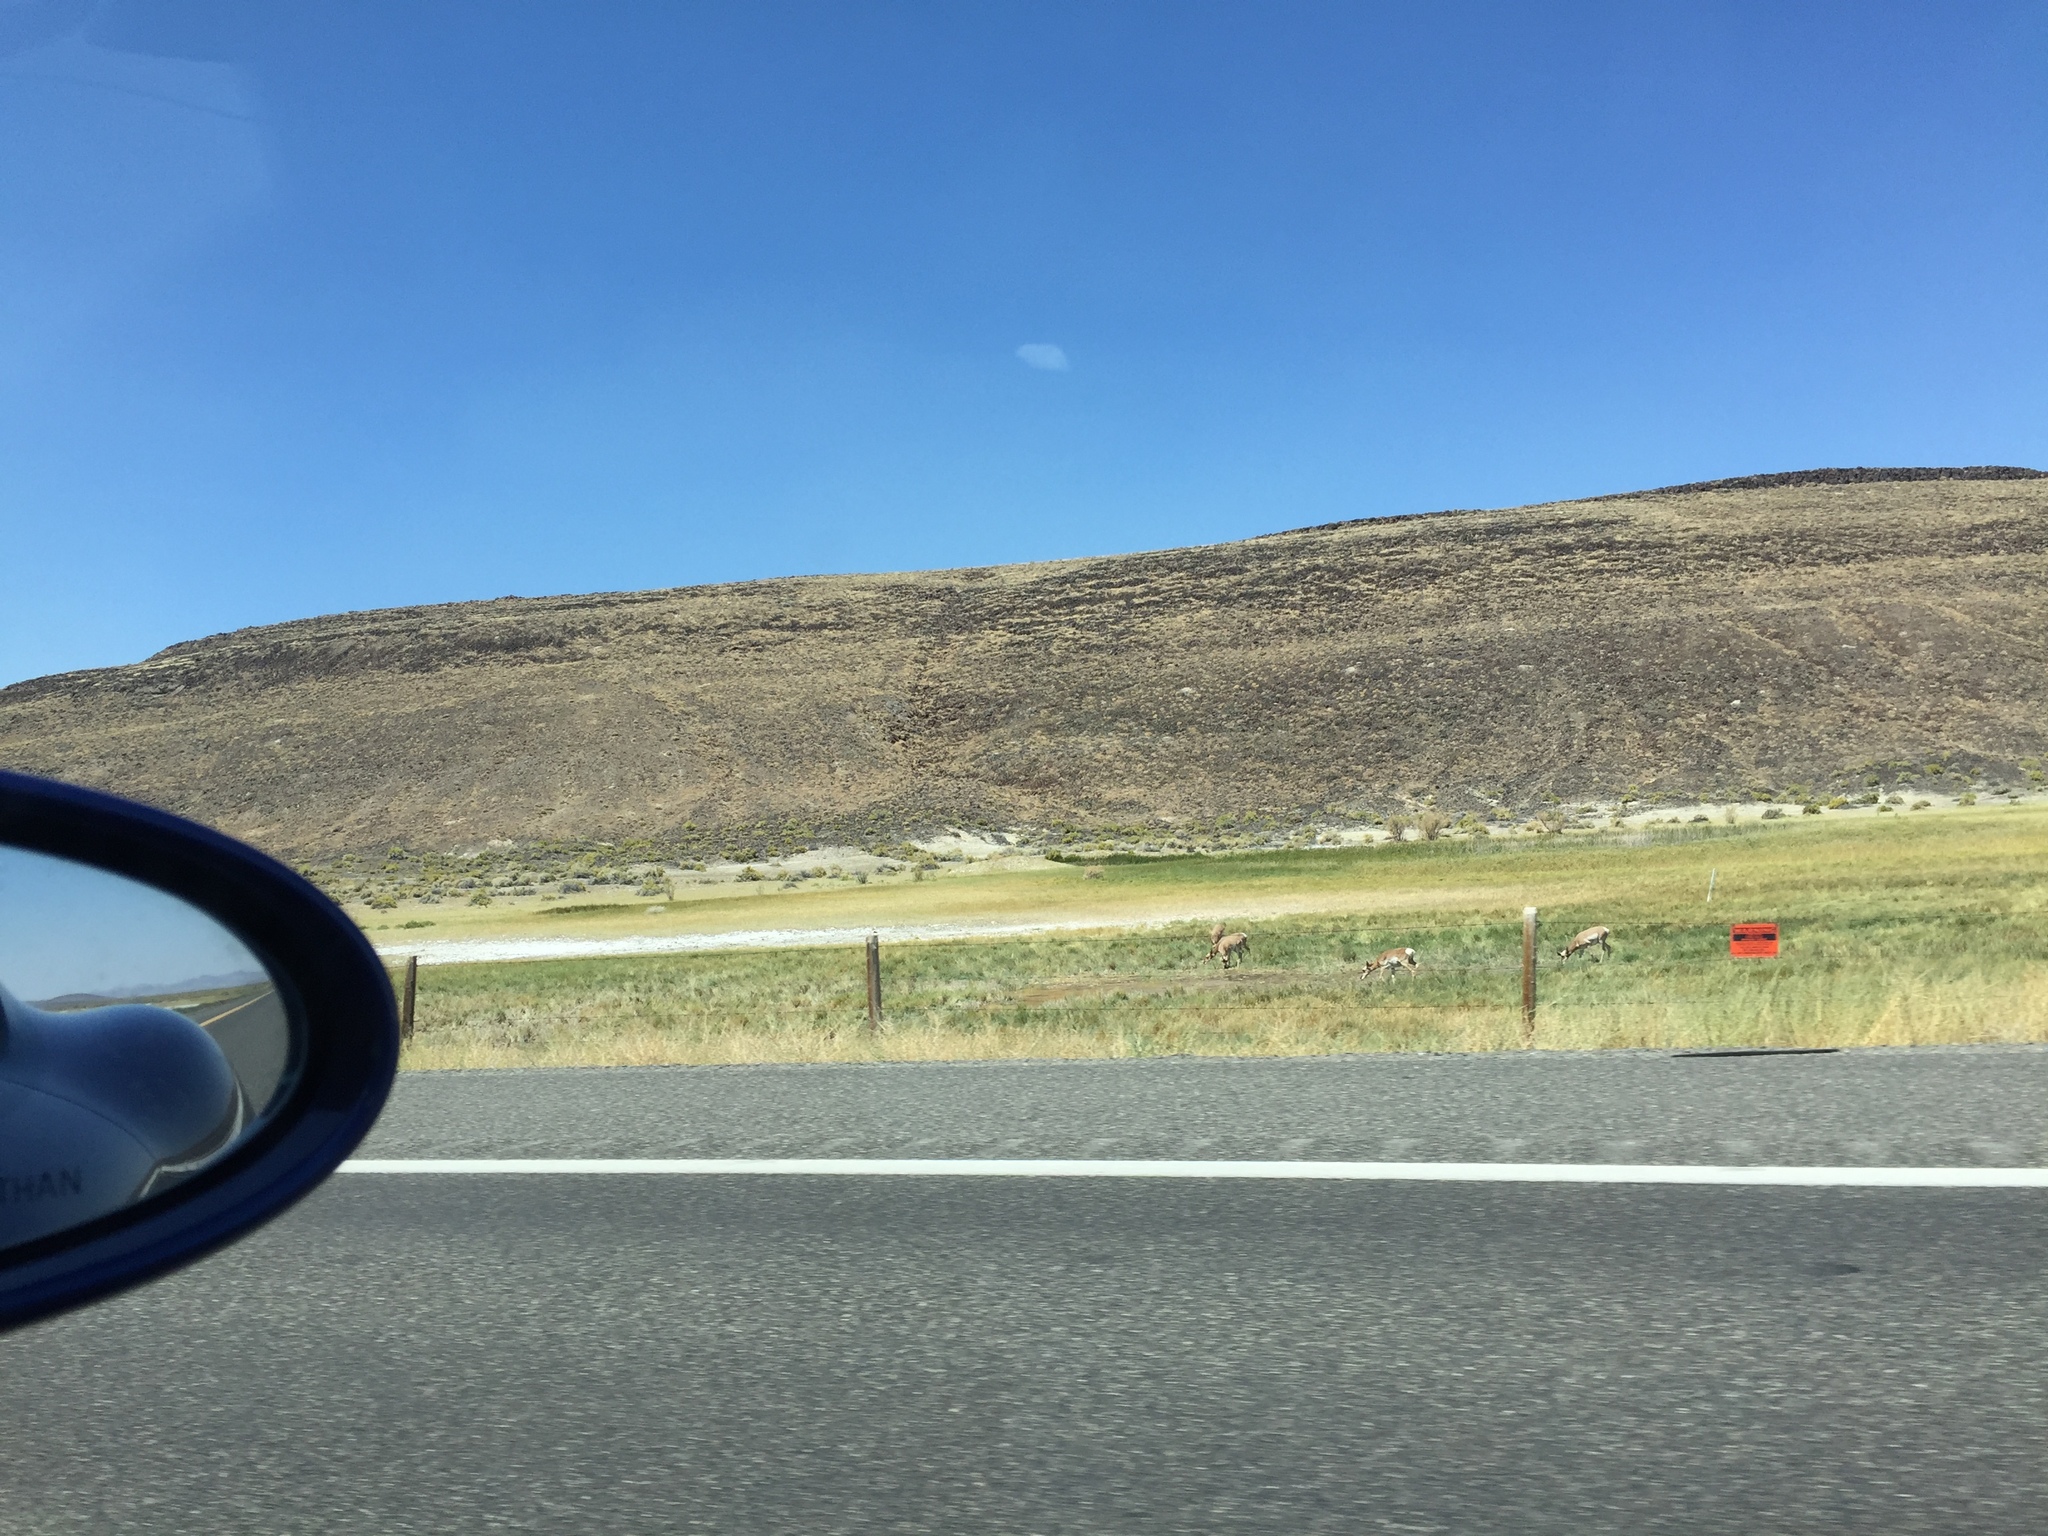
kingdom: Animalia
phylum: Chordata
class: Mammalia
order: Artiodactyla
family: Antilocapridae
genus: Antilocapra
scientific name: Antilocapra americana
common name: Pronghorn
